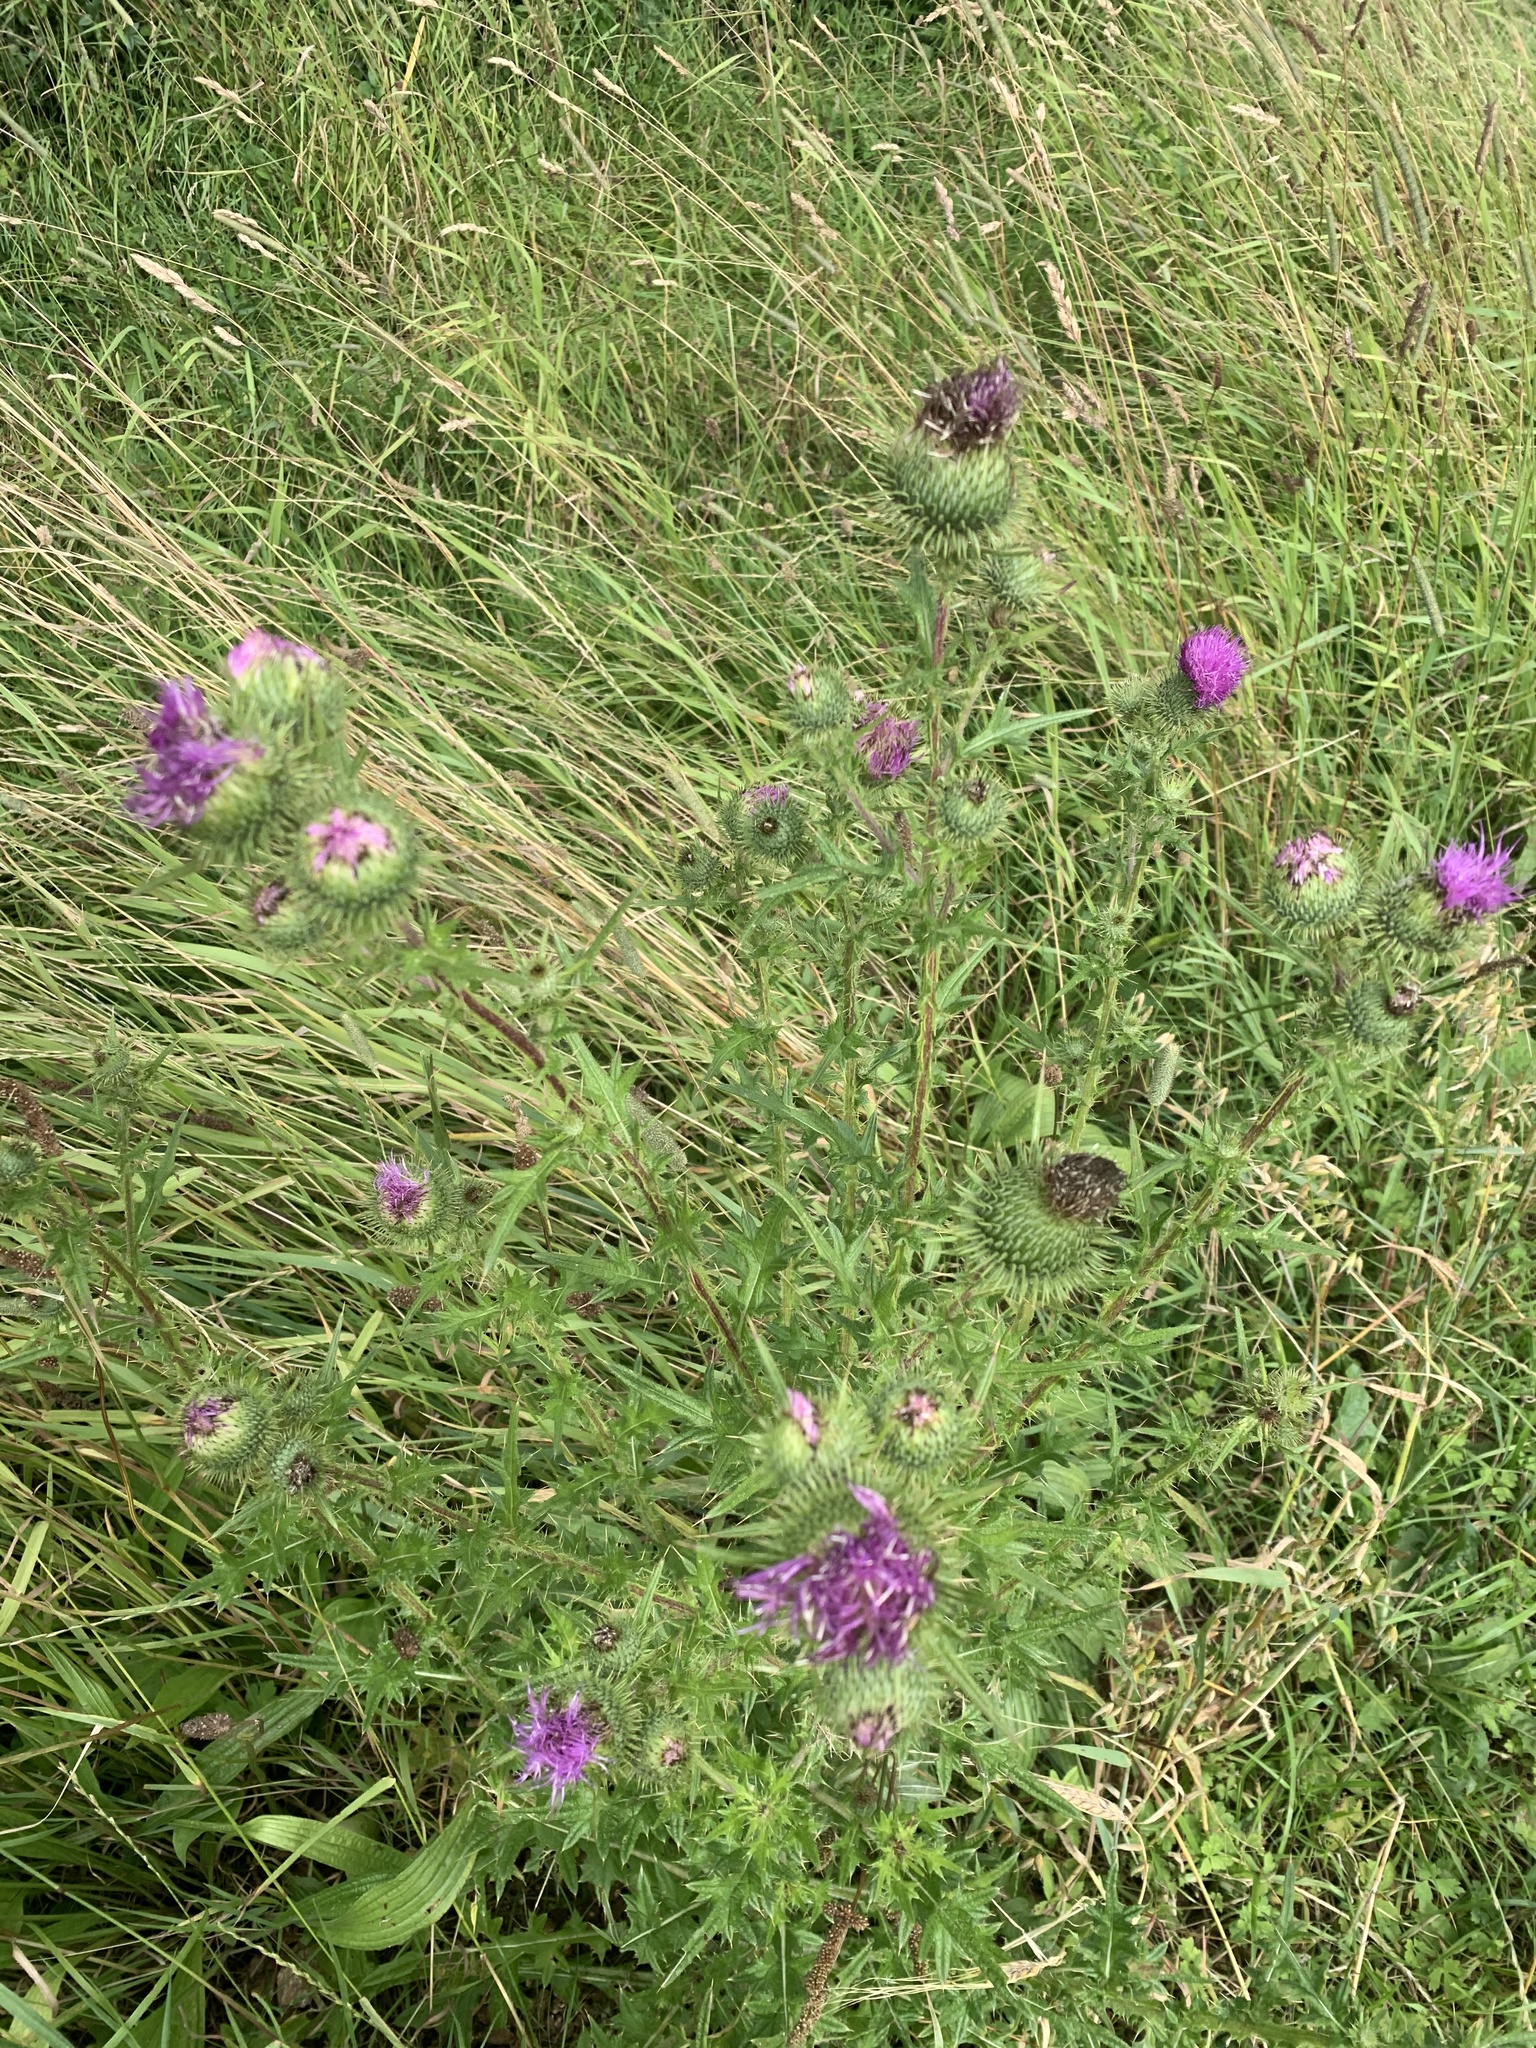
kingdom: Plantae
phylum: Tracheophyta
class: Magnoliopsida
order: Asterales
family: Asteraceae
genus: Cirsium
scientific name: Cirsium vulgare
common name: Bull thistle
